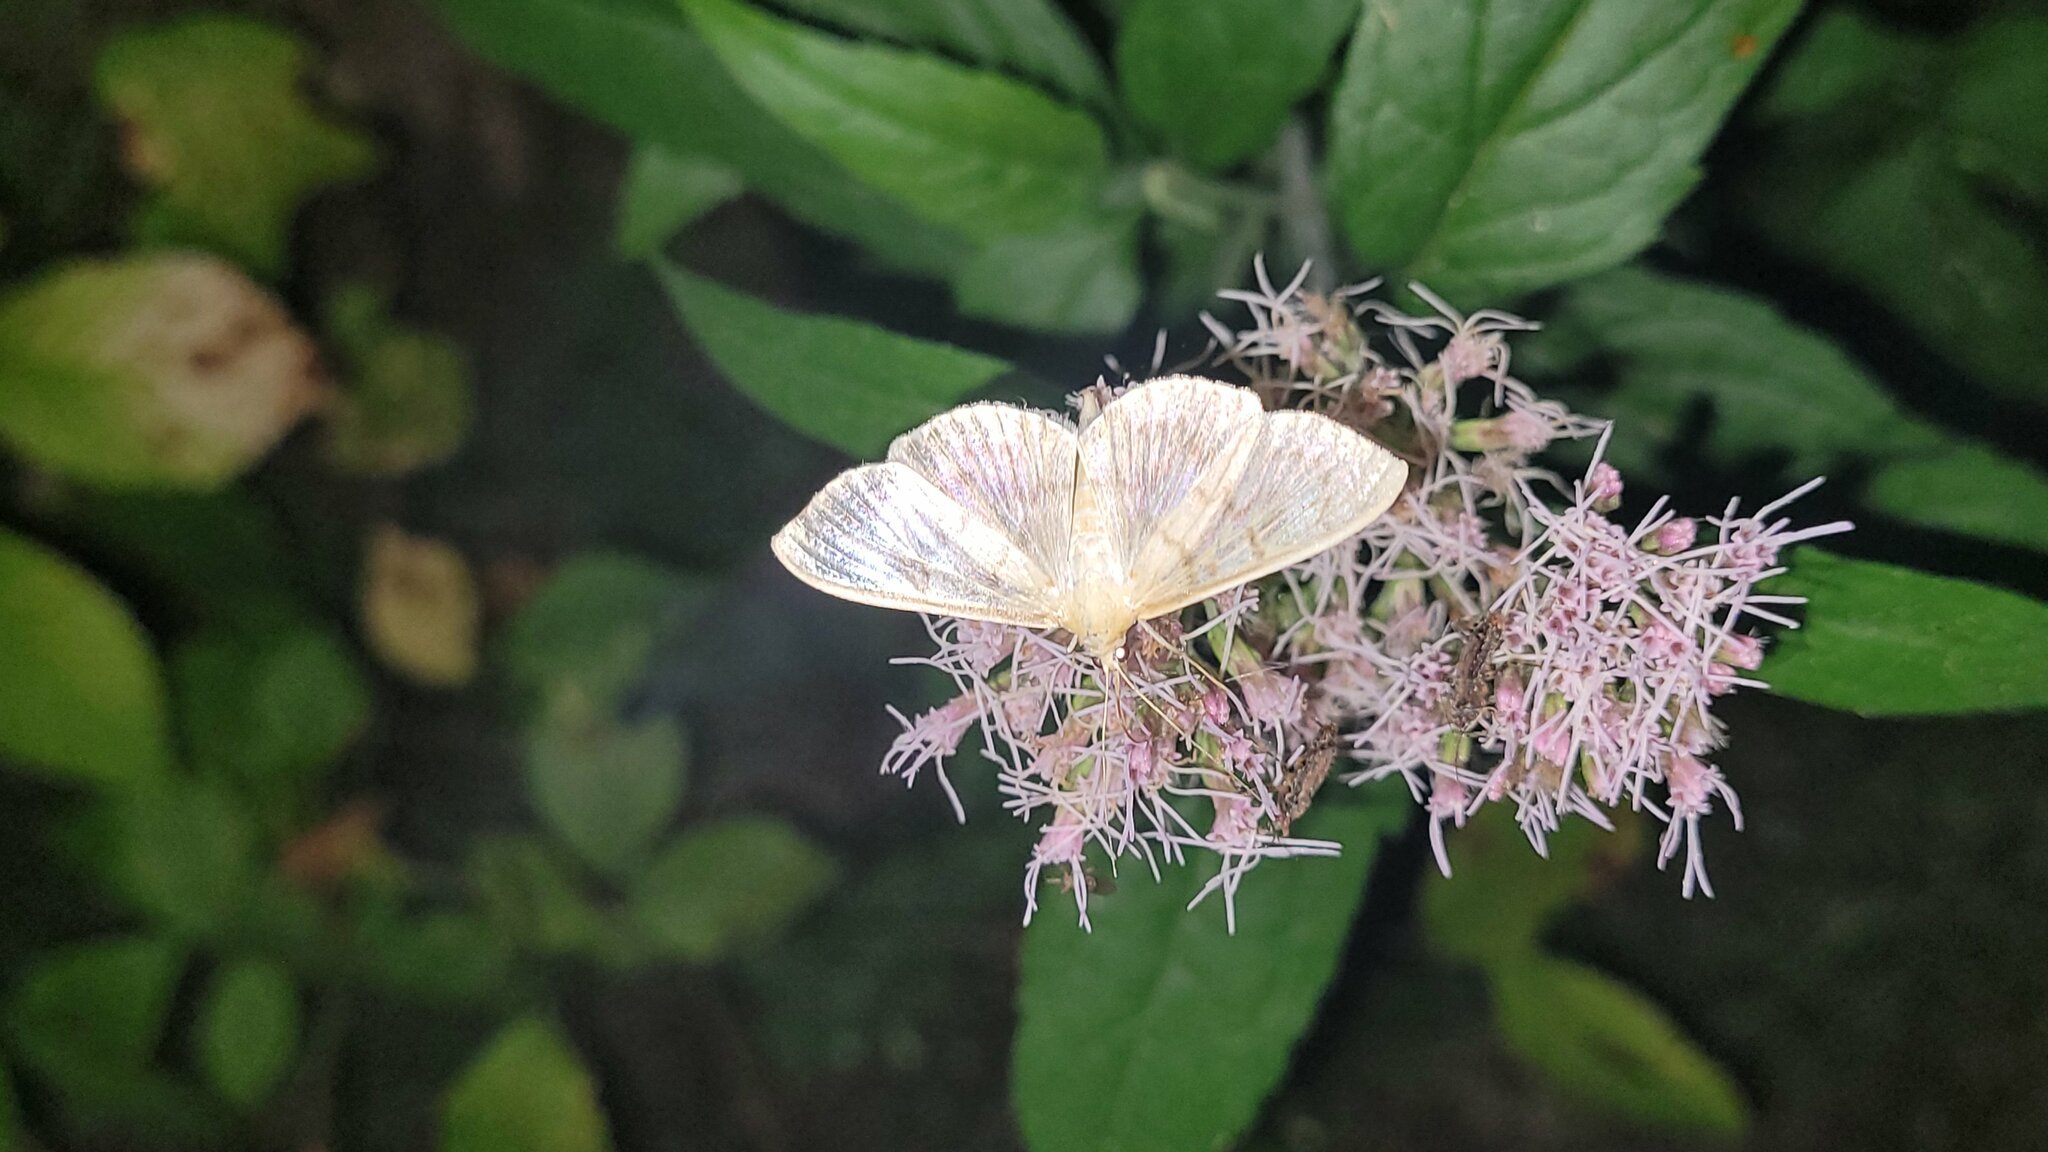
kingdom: Animalia
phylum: Arthropoda
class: Insecta
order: Lepidoptera
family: Crambidae
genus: Patania
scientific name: Patania ruralis
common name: Mother of pearl
